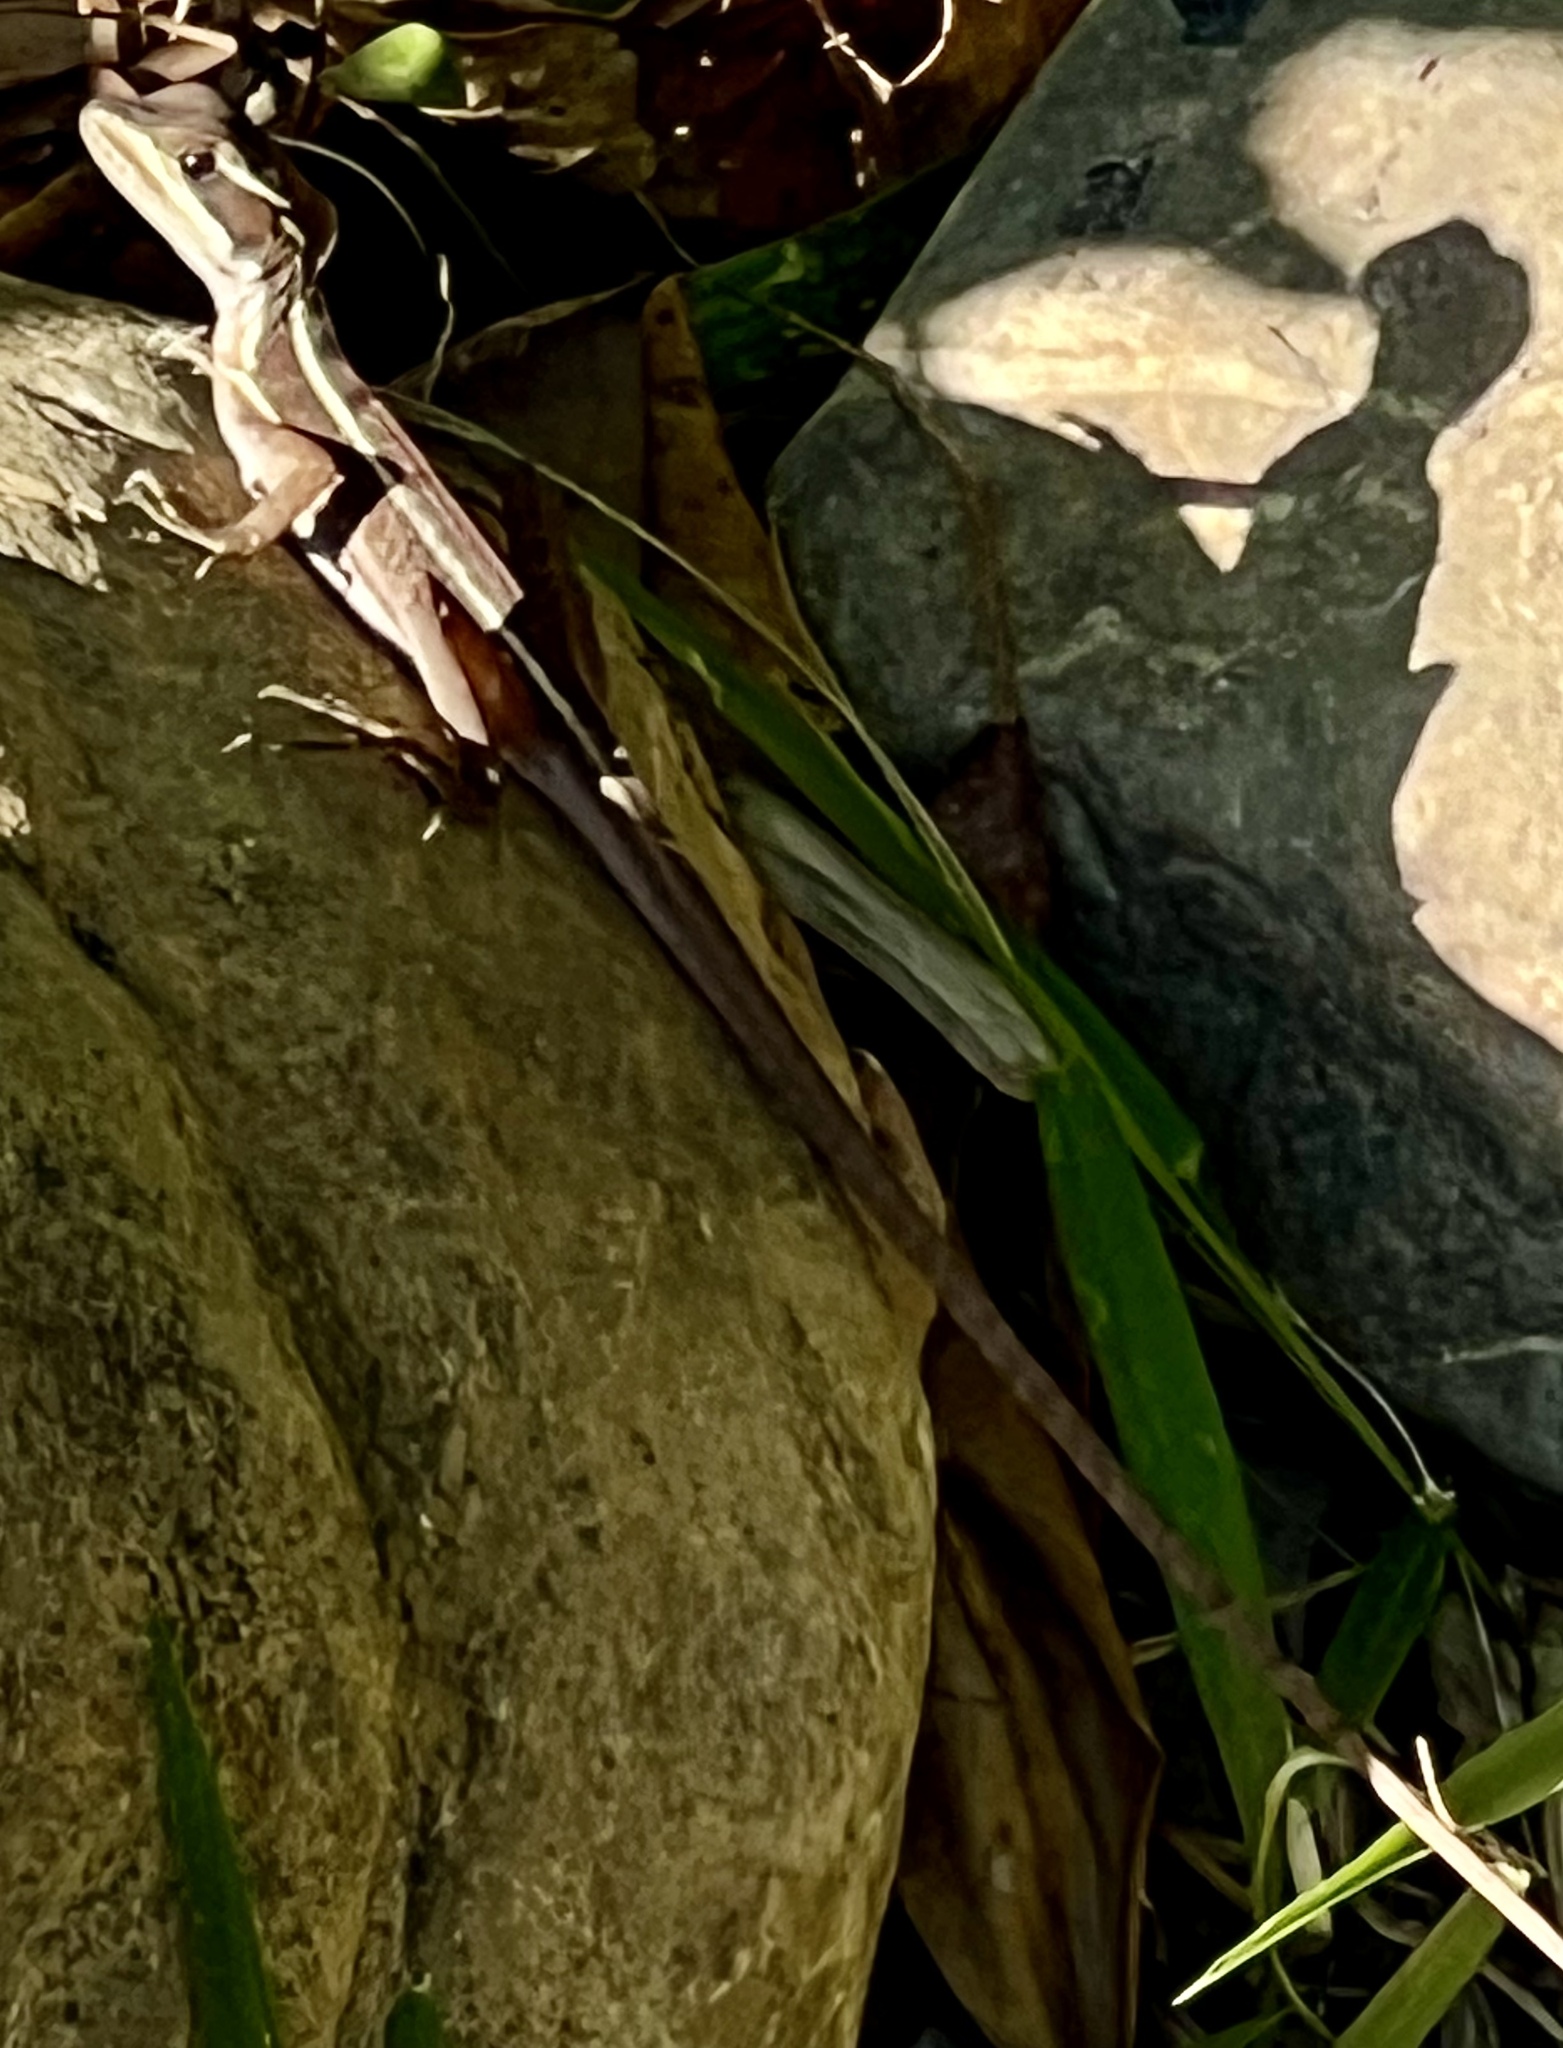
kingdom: Animalia
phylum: Chordata
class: Squamata
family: Corytophanidae
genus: Basiliscus
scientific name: Basiliscus vittatus
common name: Brown basilisk
